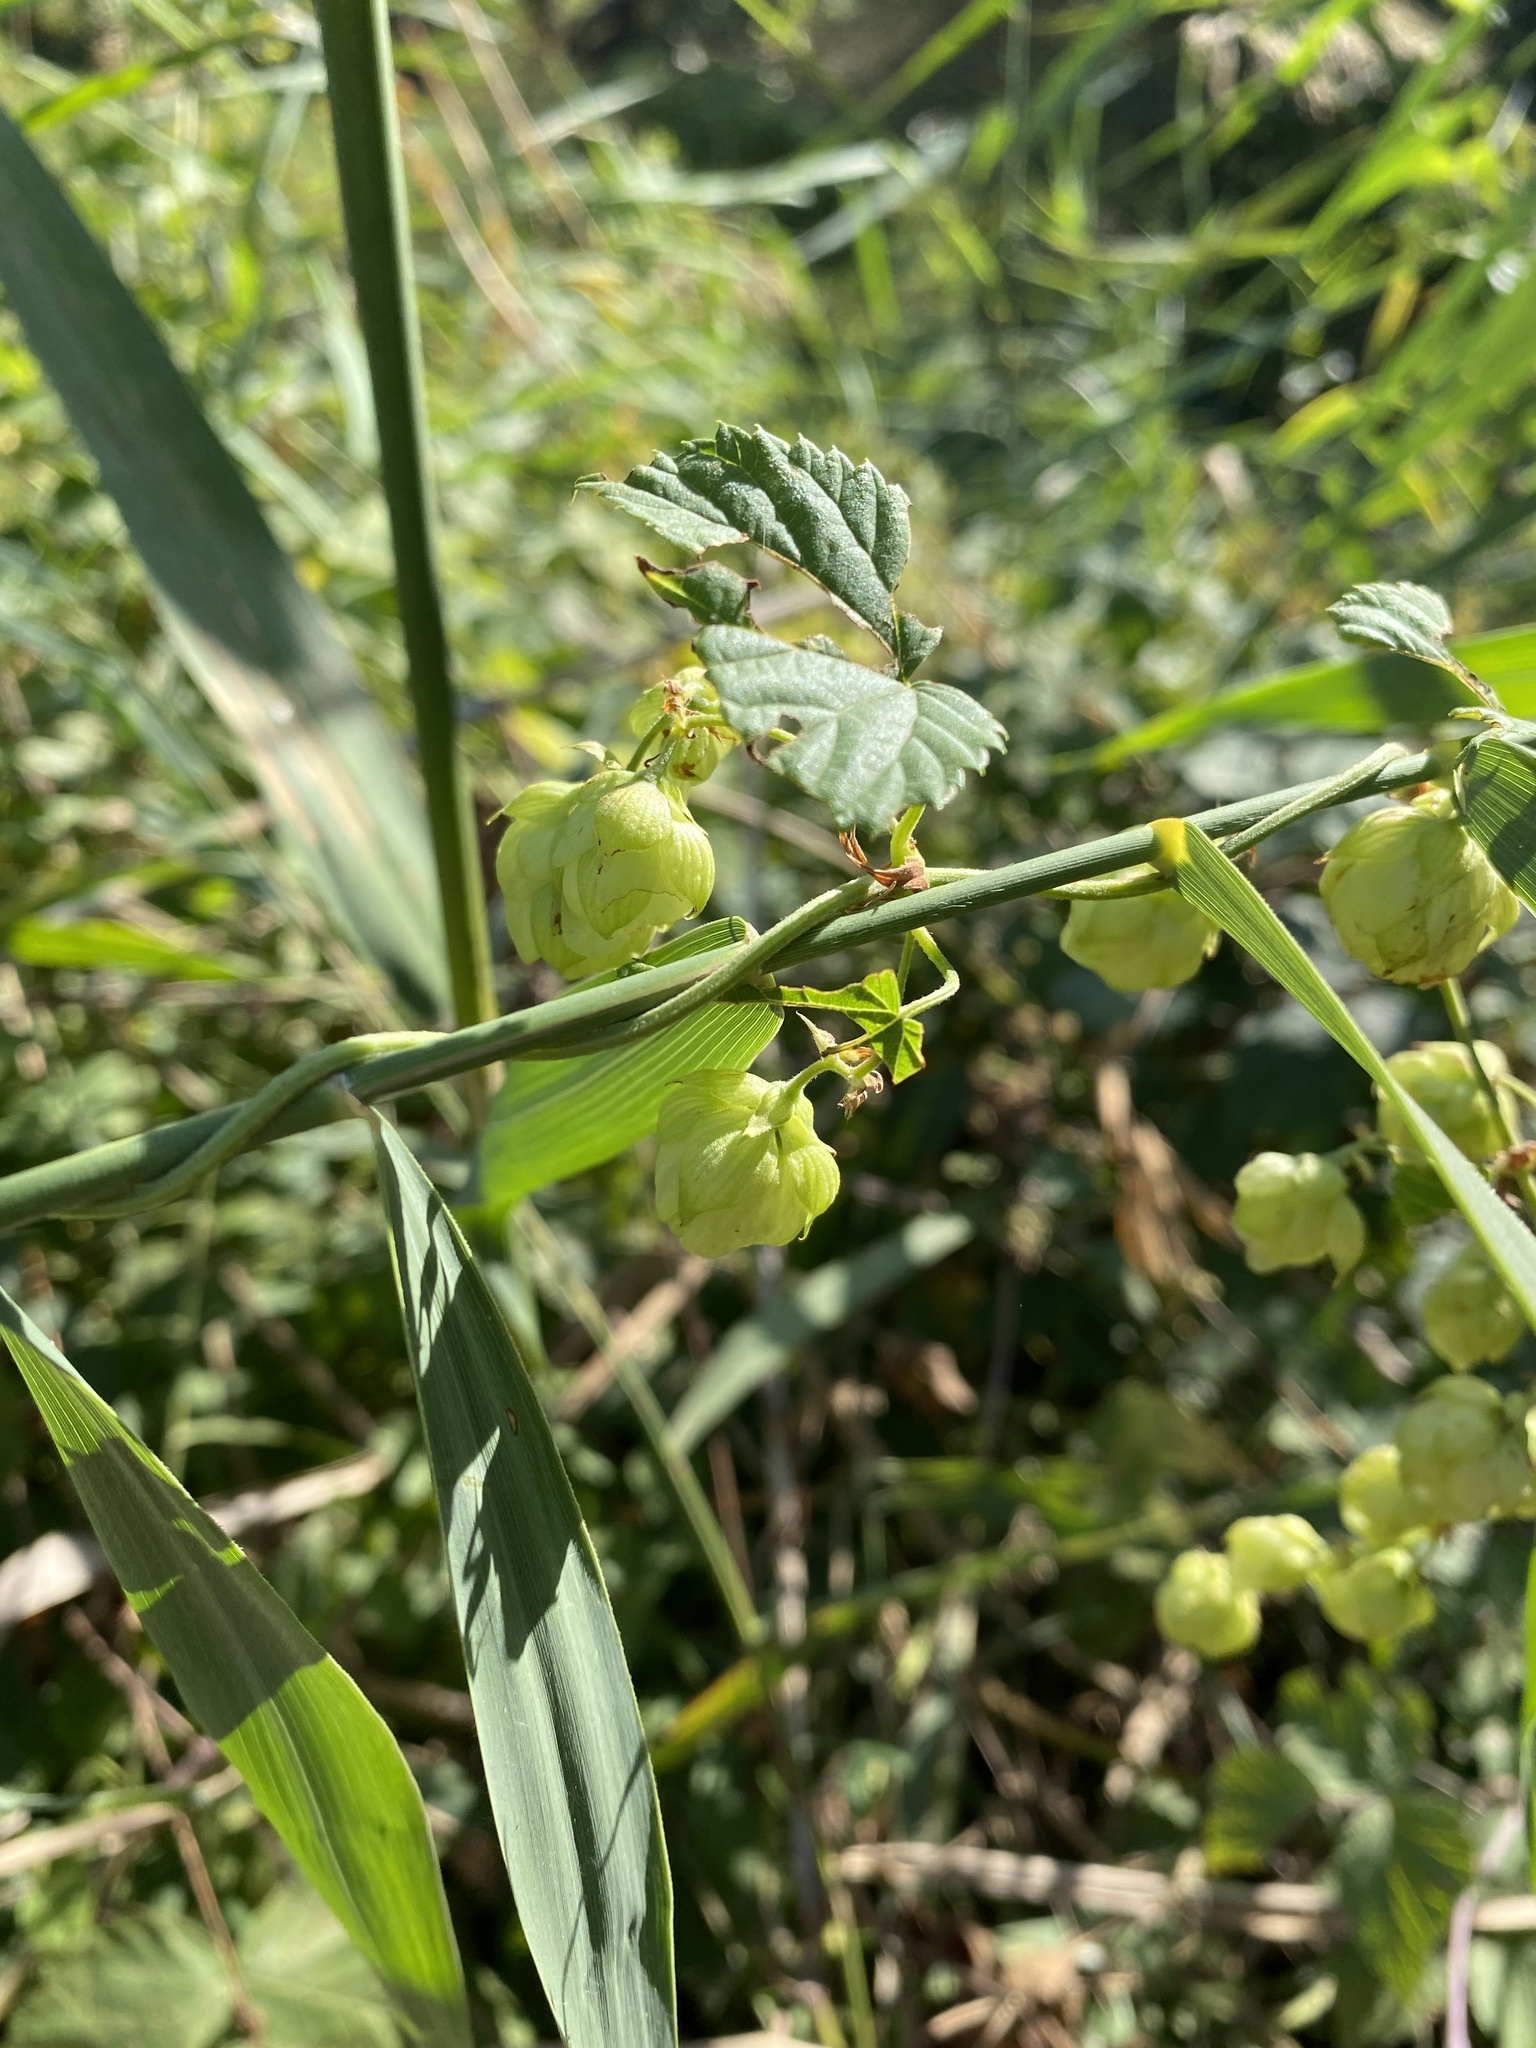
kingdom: Plantae
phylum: Tracheophyta
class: Magnoliopsida
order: Rosales
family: Cannabaceae
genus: Humulus
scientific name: Humulus lupulus
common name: Hop
